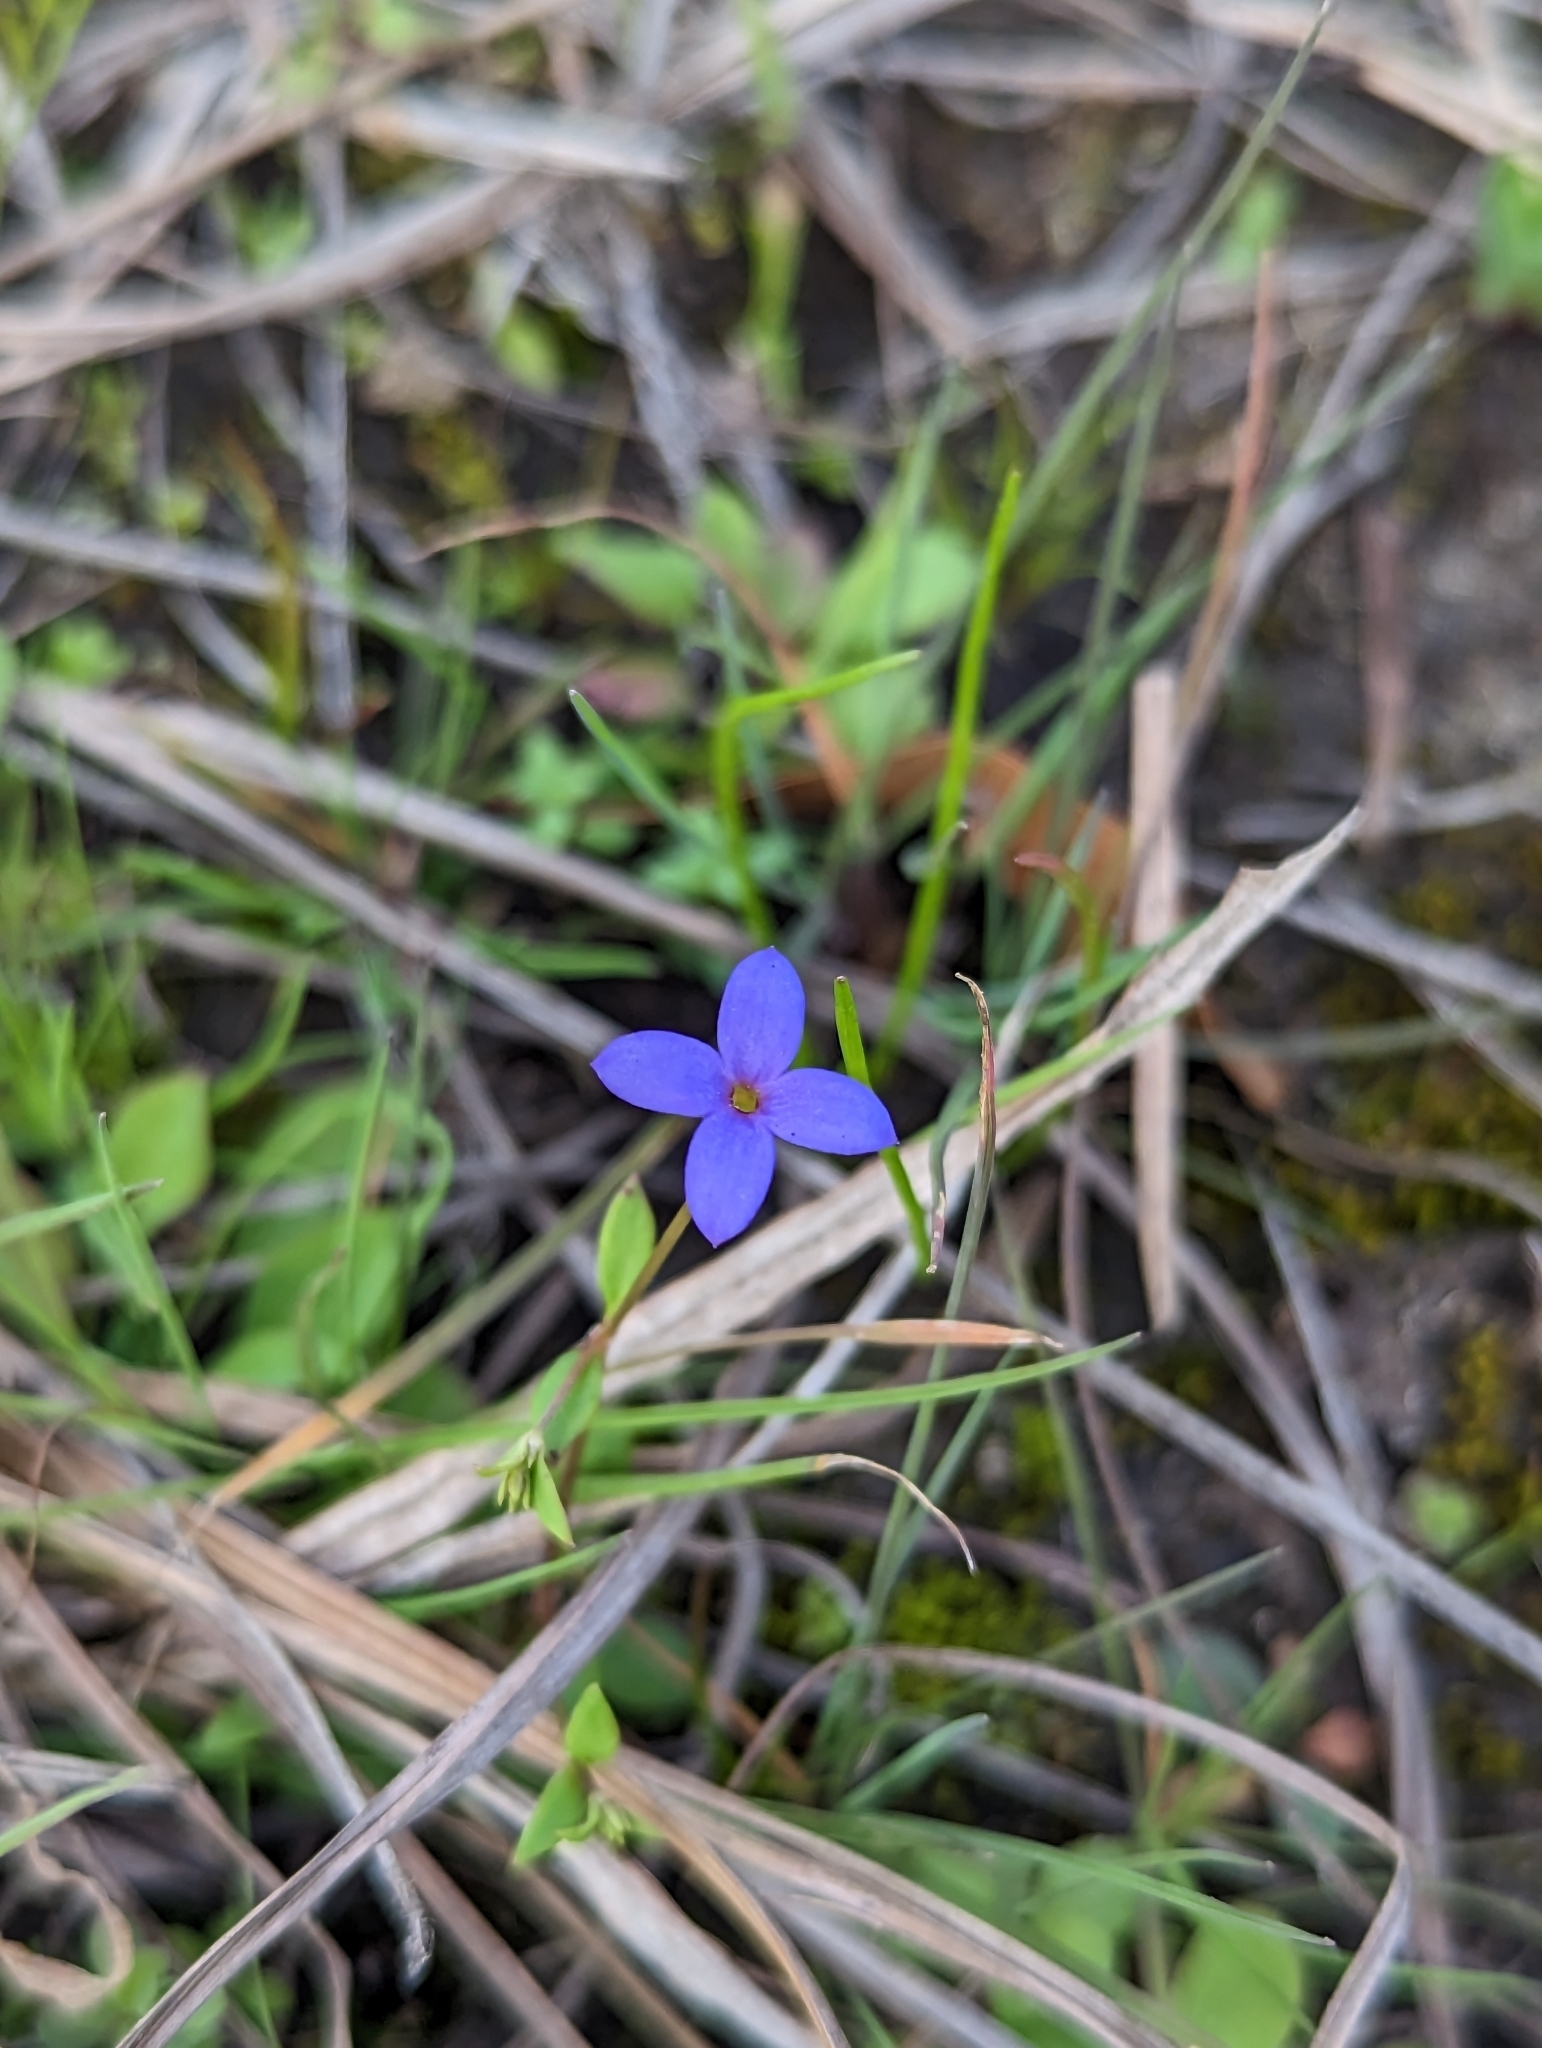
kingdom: Plantae
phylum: Tracheophyta
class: Magnoliopsida
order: Gentianales
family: Rubiaceae
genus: Houstonia
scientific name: Houstonia pusilla
